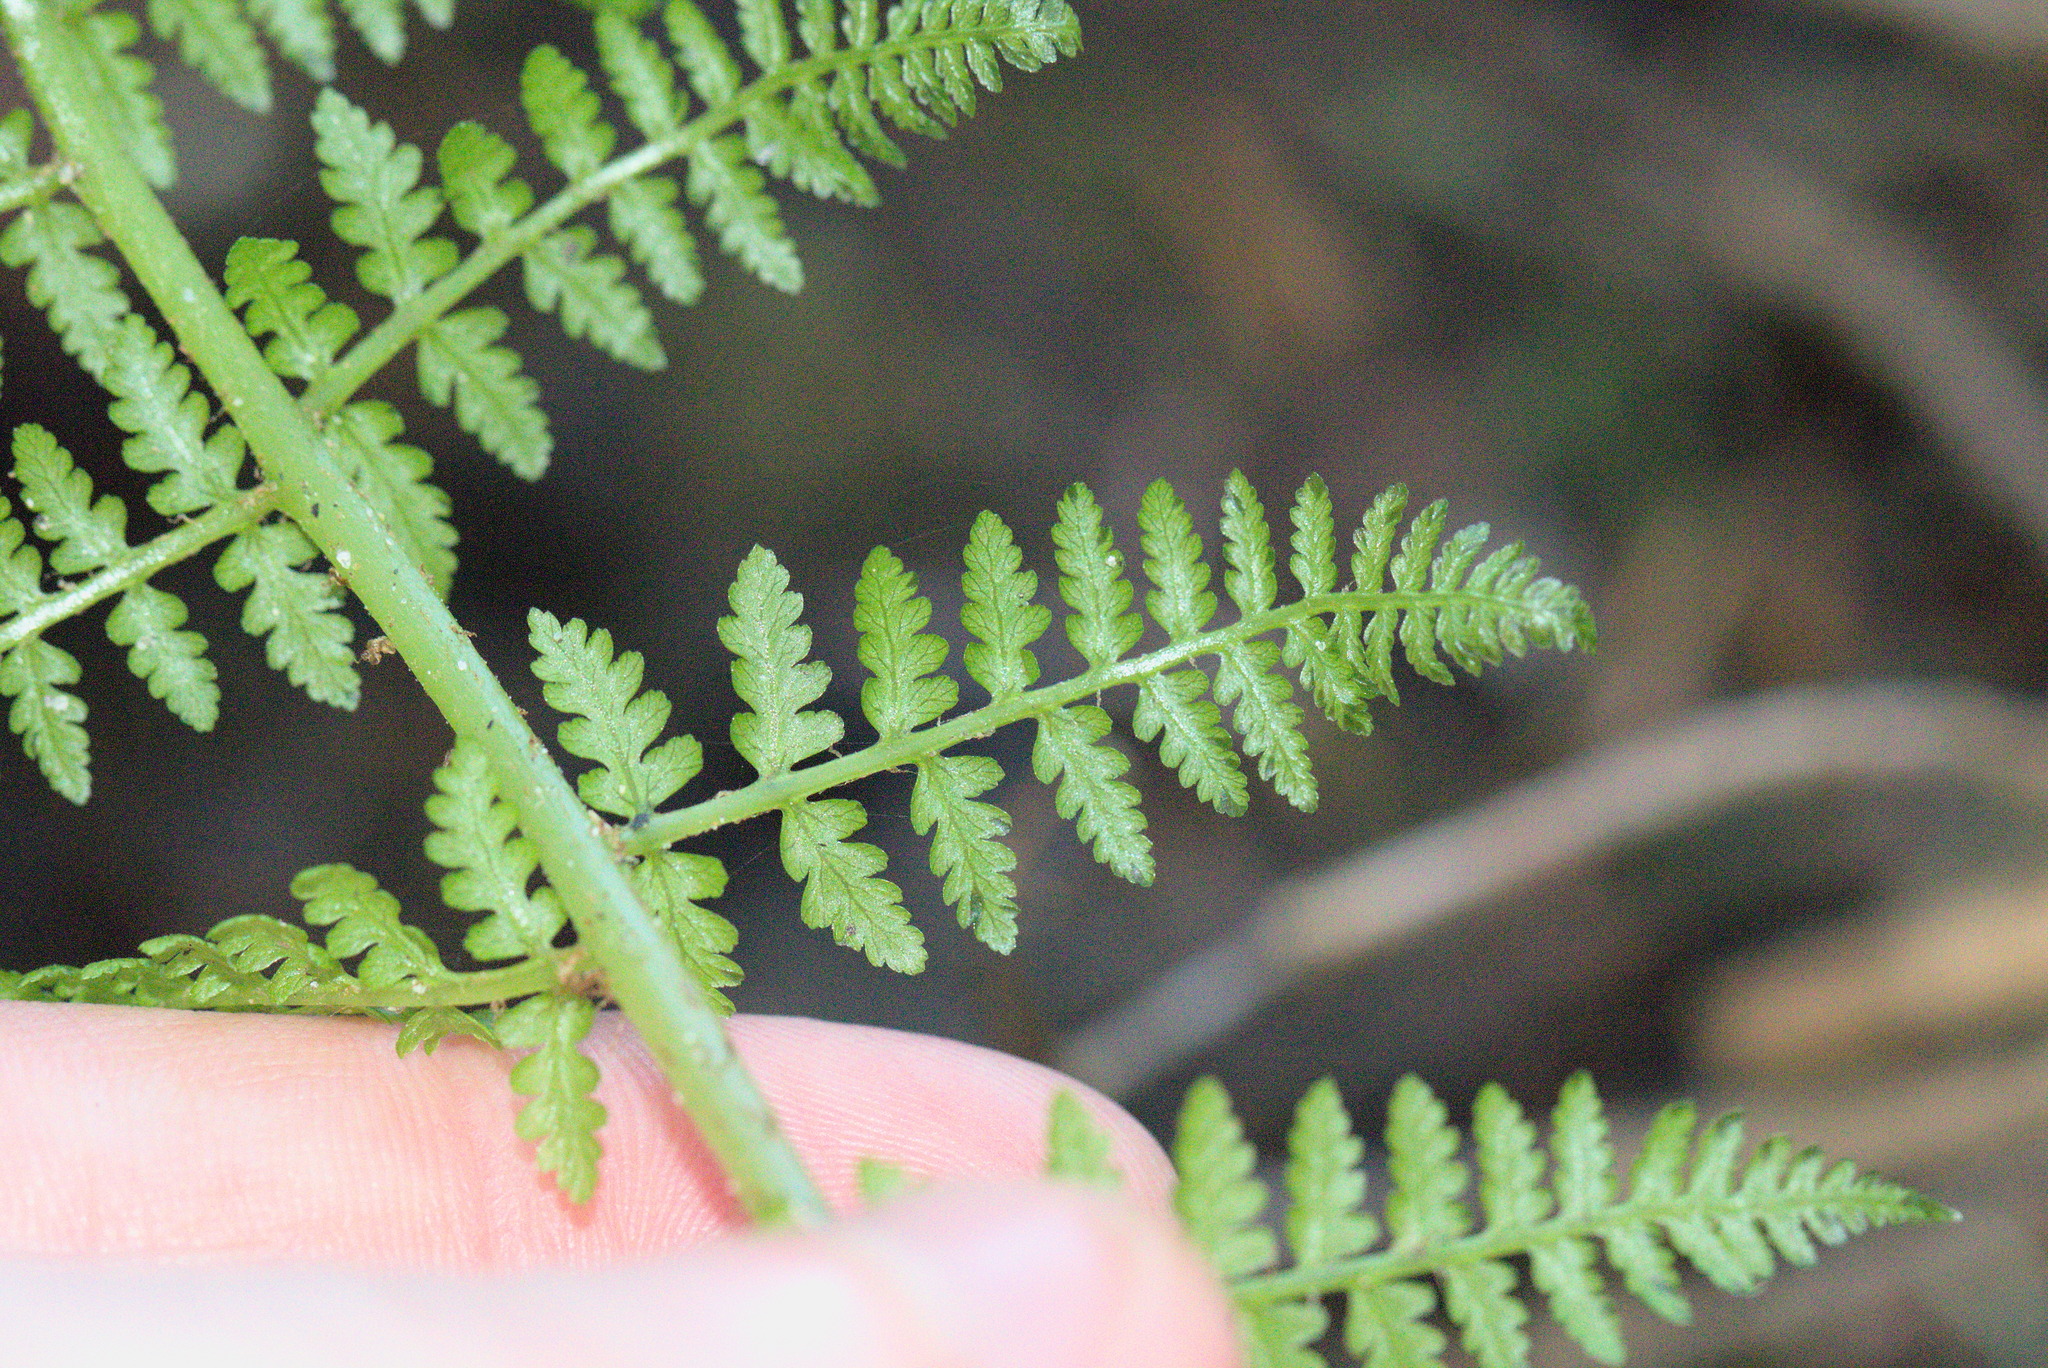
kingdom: Plantae
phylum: Tracheophyta
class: Polypodiopsida
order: Polypodiales
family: Athyriaceae
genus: Athyrium
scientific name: Athyrium filix-femina
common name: Lady fern
